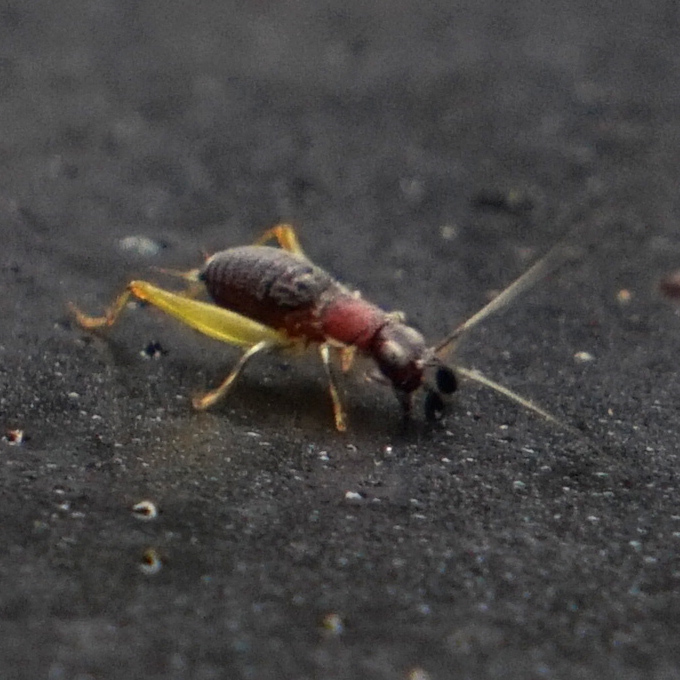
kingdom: Animalia
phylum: Arthropoda
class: Insecta
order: Orthoptera
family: Trigonidiidae
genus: Phyllopalpus
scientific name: Phyllopalpus pulchellus
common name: Handsome trig
